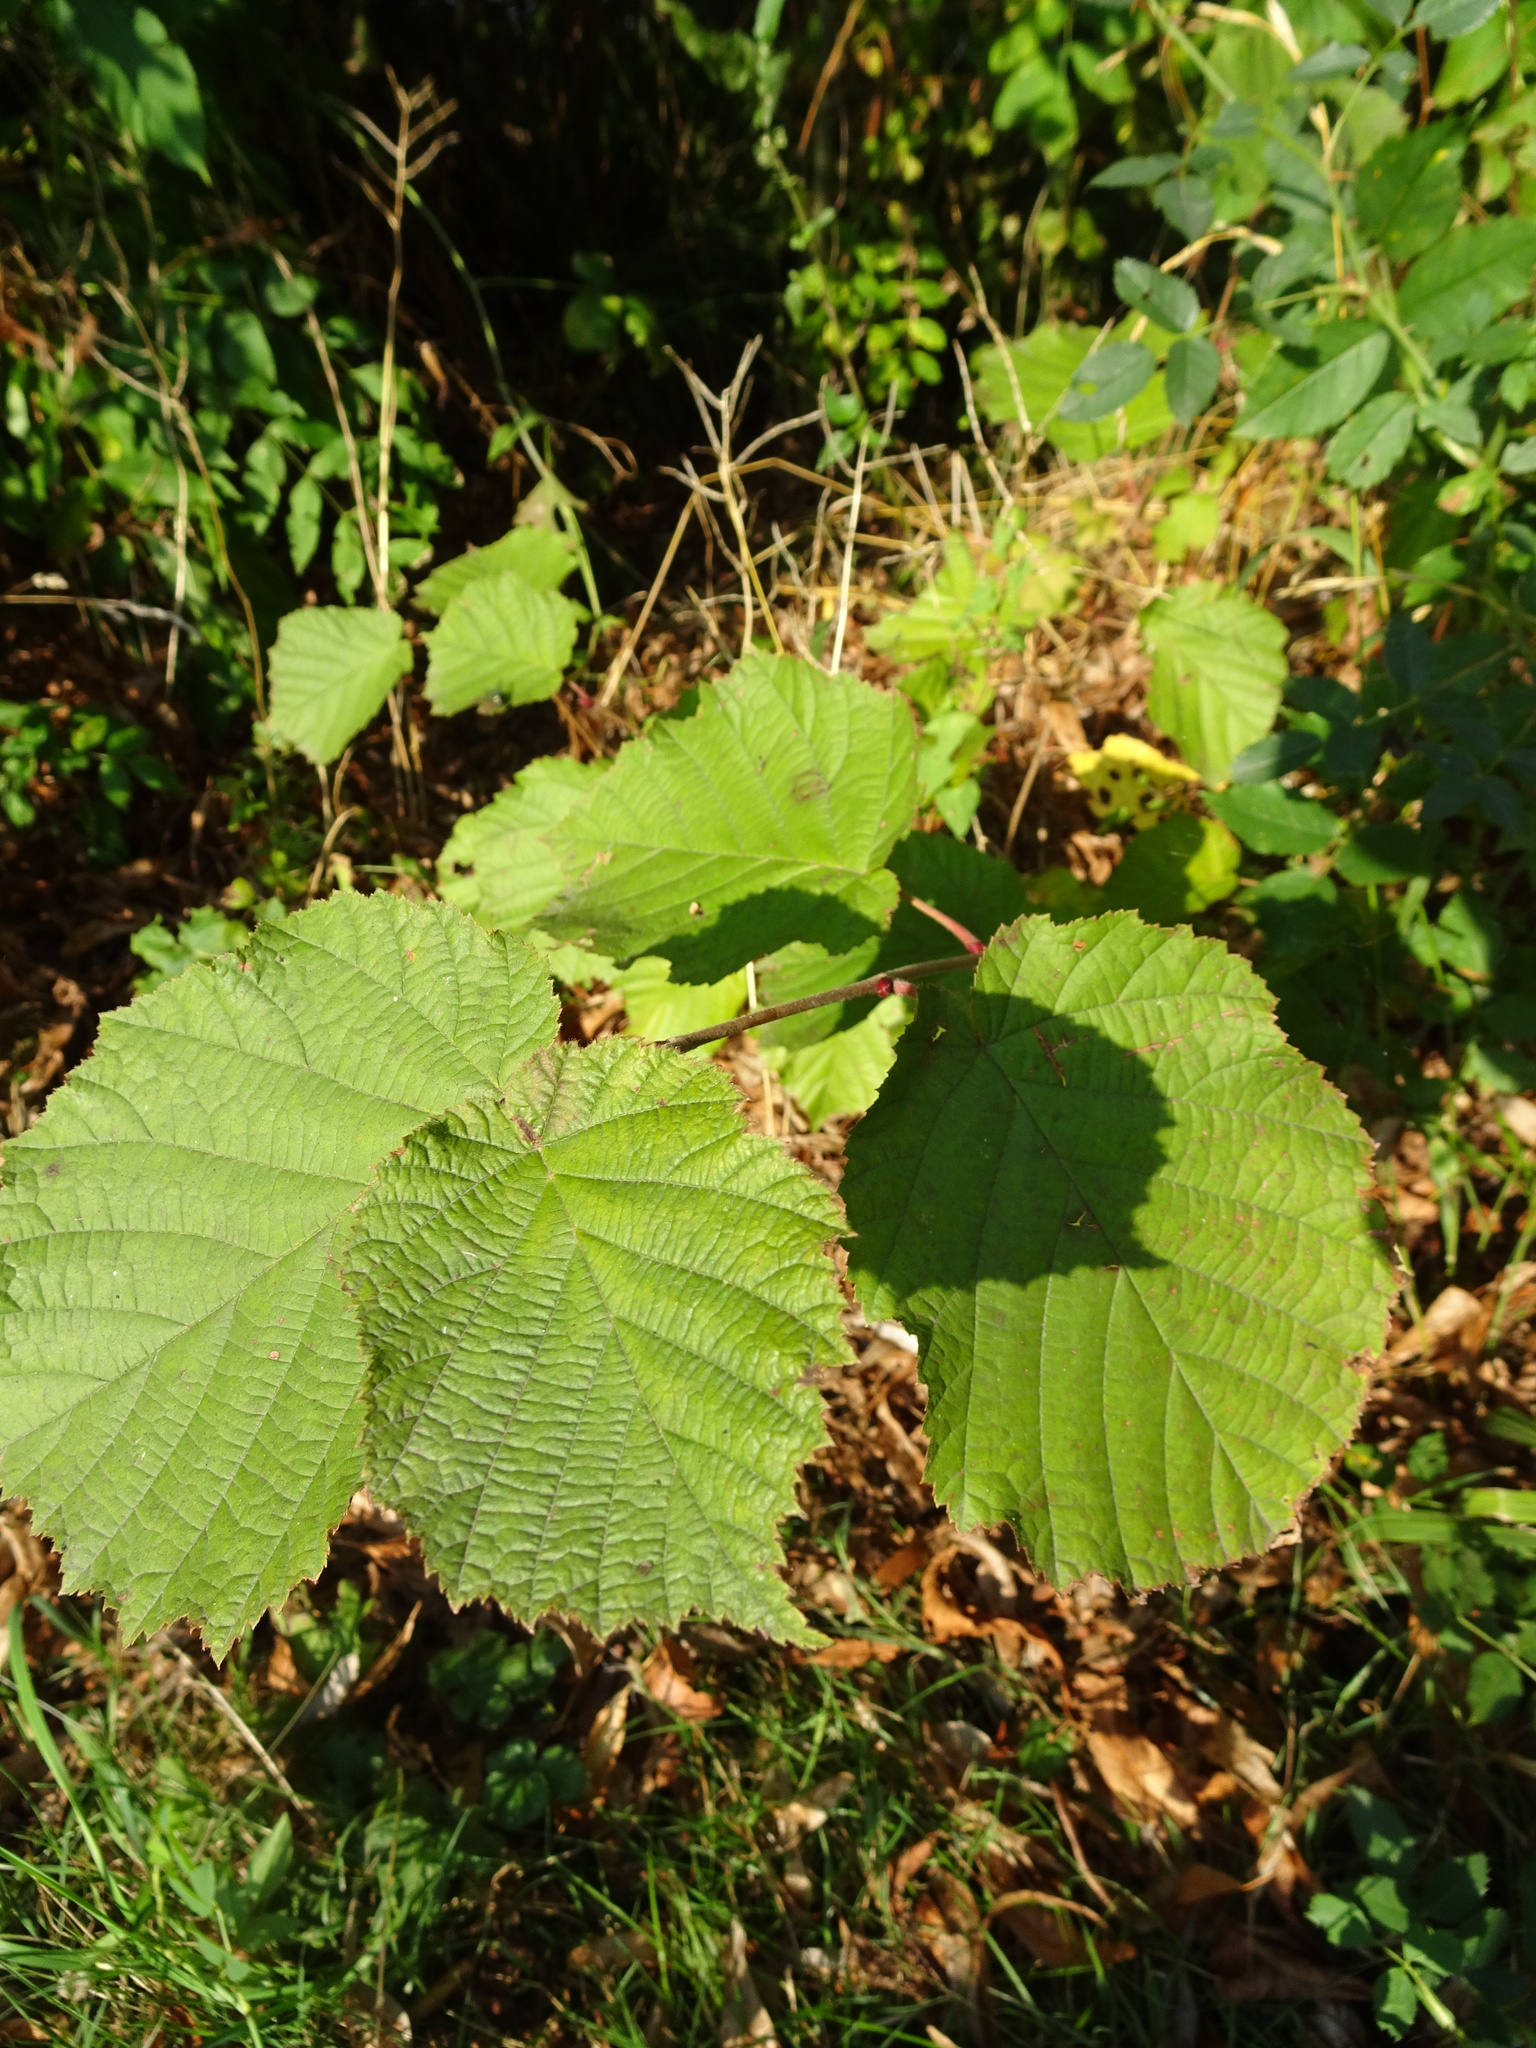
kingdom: Plantae
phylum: Tracheophyta
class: Magnoliopsida
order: Fagales
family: Betulaceae
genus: Corylus
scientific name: Corylus avellana
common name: European hazel
